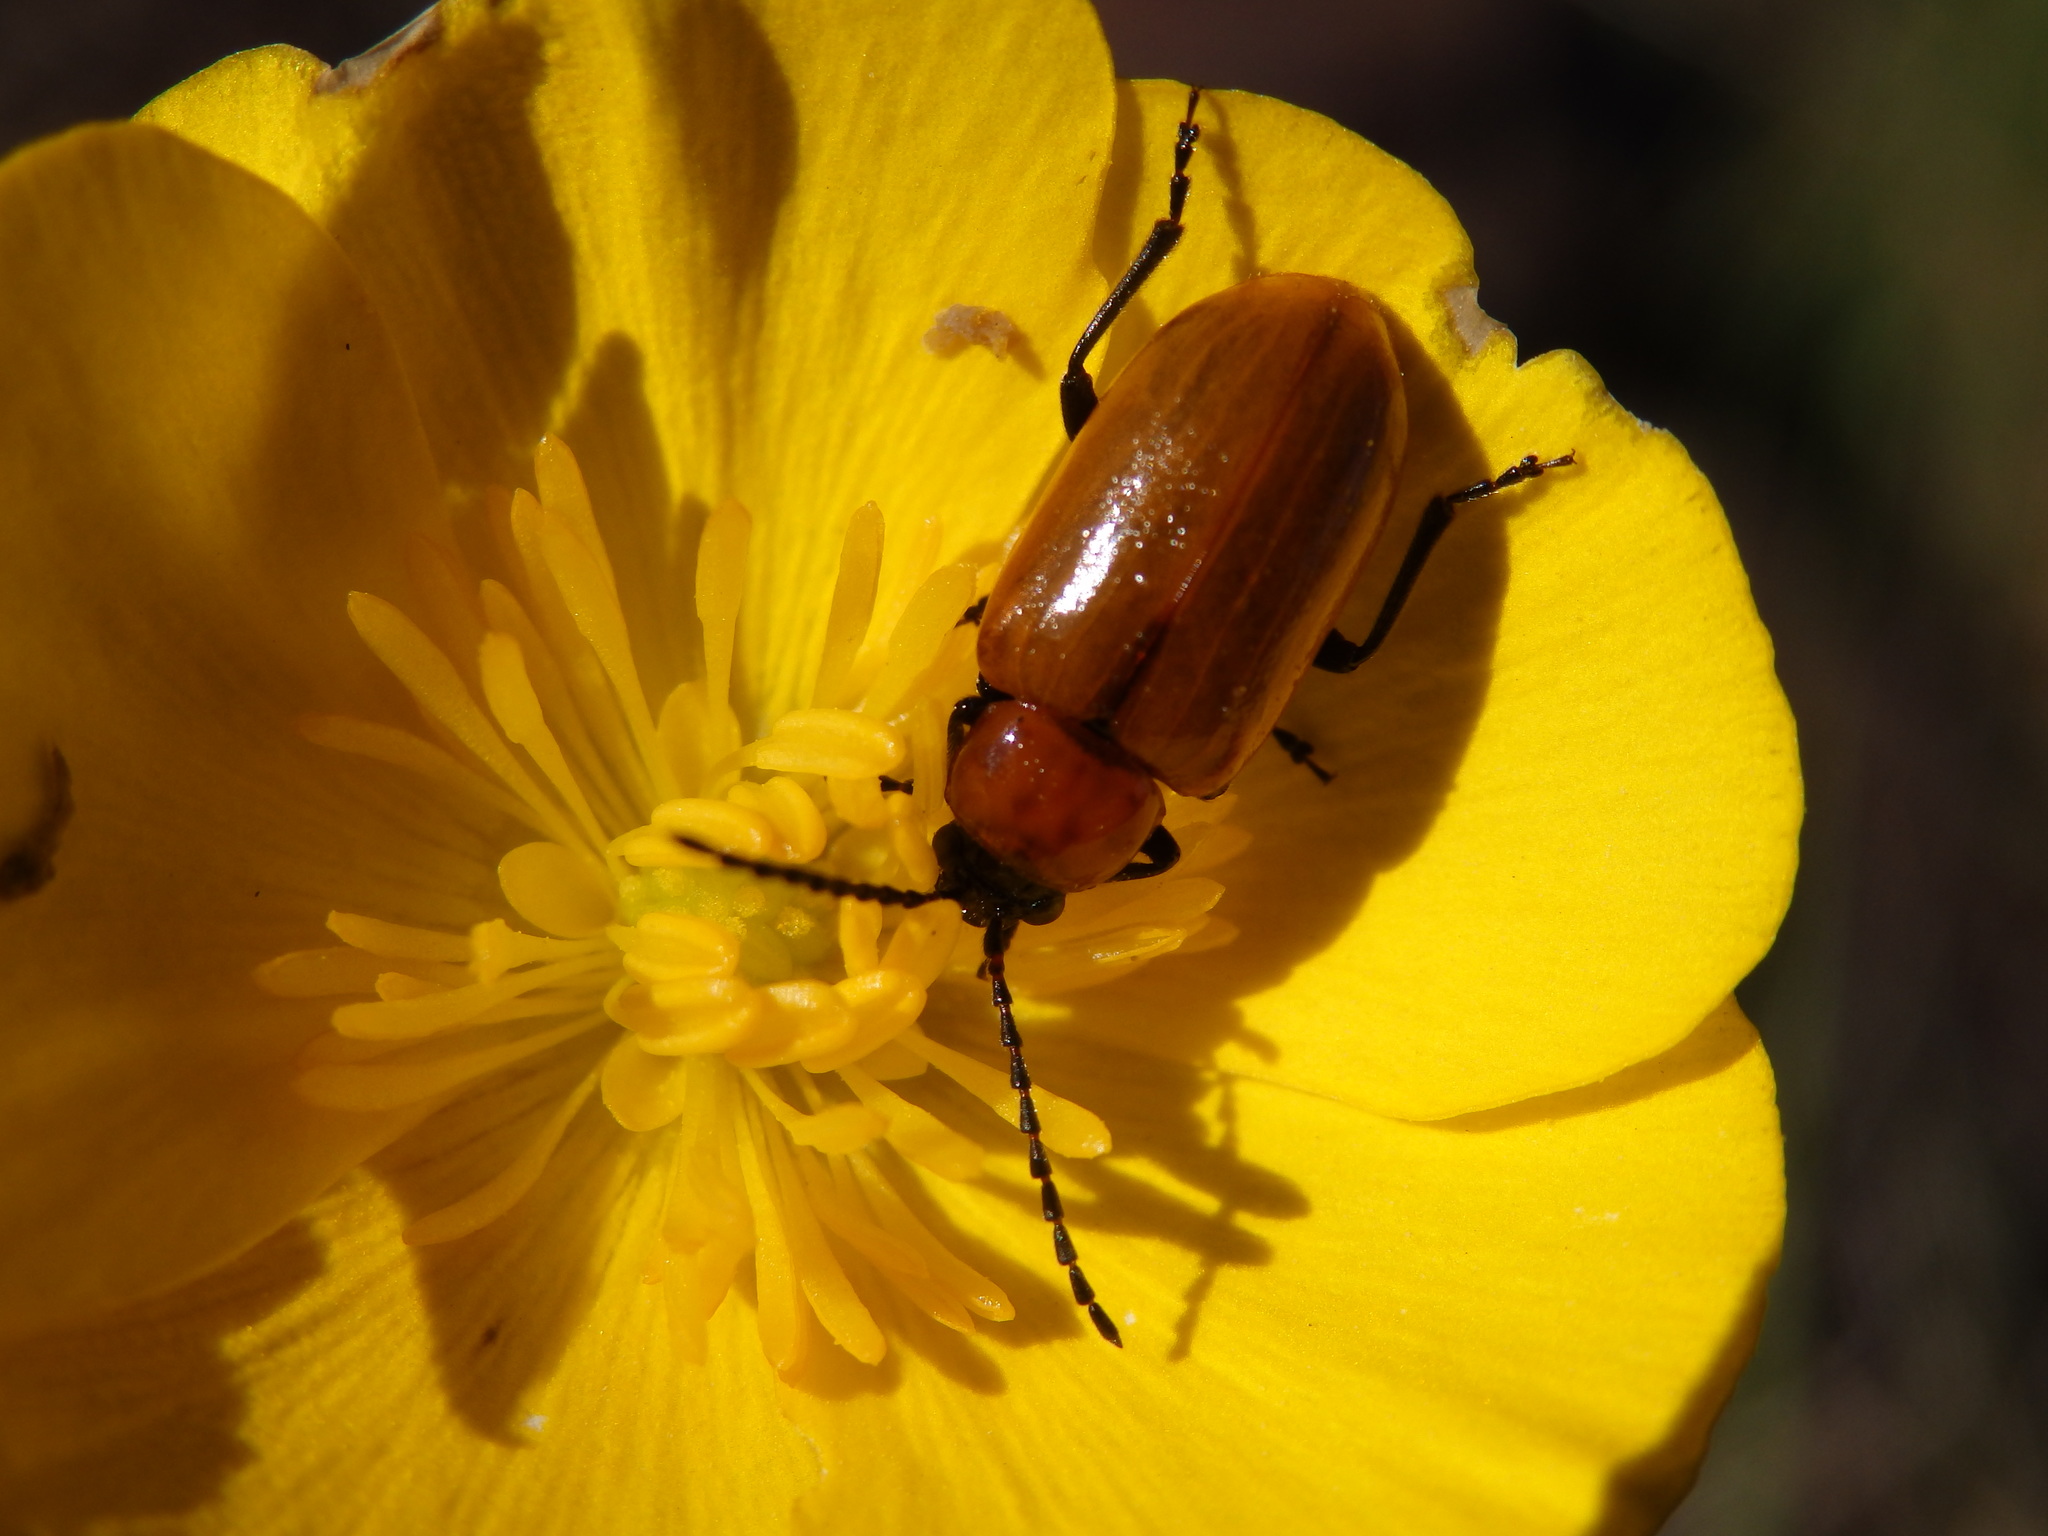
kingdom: Animalia
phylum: Arthropoda
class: Insecta
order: Coleoptera
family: Chrysomelidae
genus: Exosoma
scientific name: Exosoma lusitanicum
